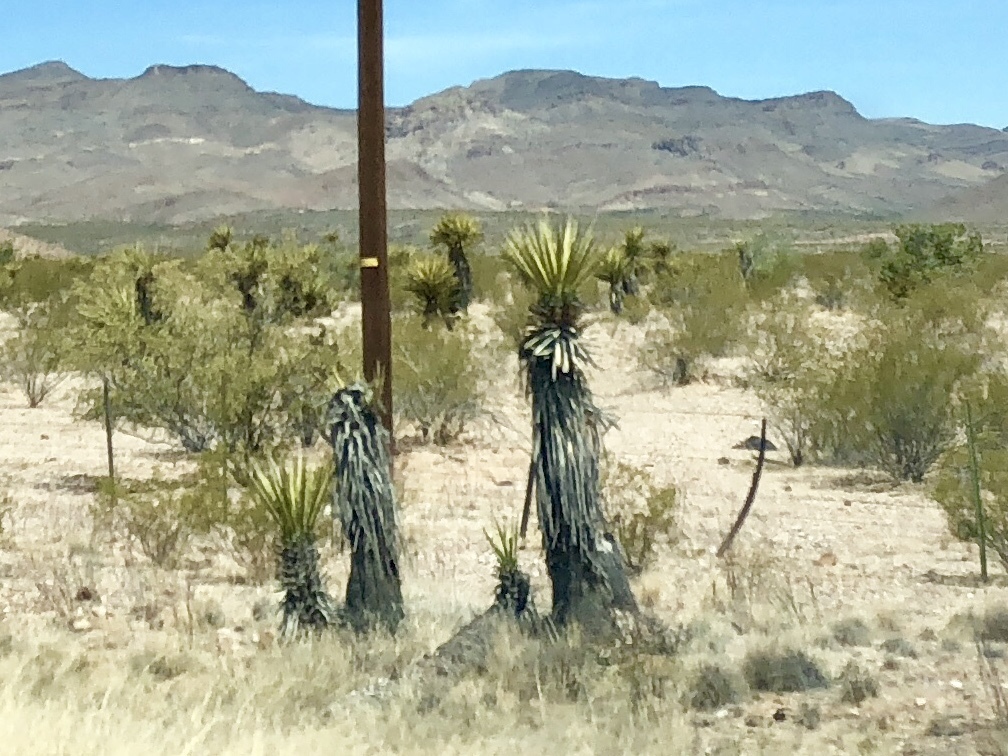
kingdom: Plantae
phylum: Tracheophyta
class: Liliopsida
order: Asparagales
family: Asparagaceae
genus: Yucca
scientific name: Yucca schidigera
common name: Mojave yucca
